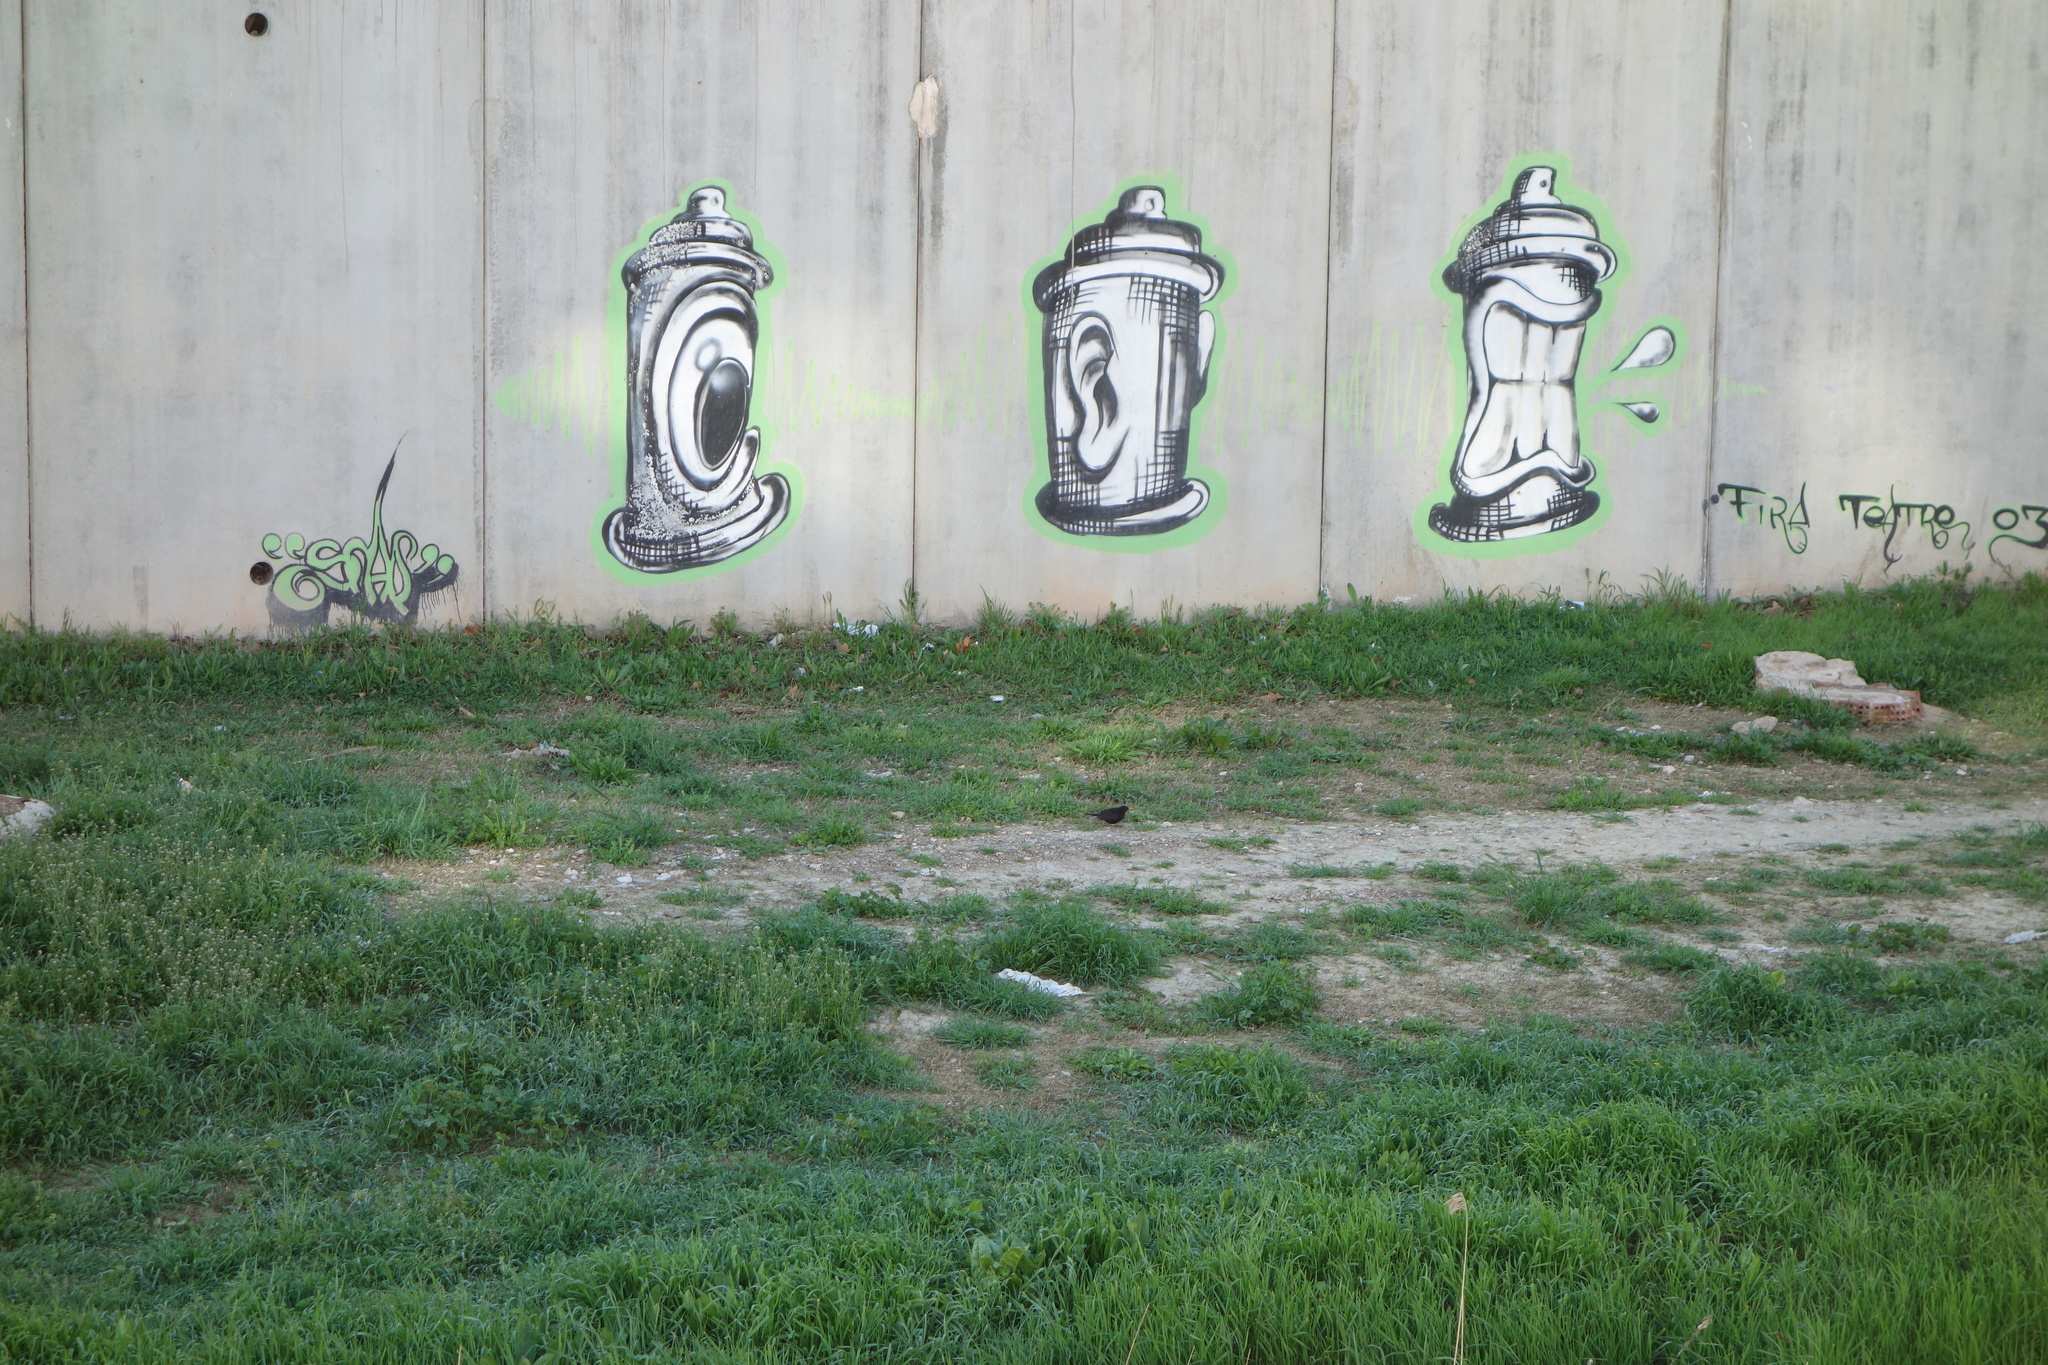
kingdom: Animalia
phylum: Chordata
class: Aves
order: Passeriformes
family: Turdidae
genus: Turdus
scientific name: Turdus merula
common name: Common blackbird
